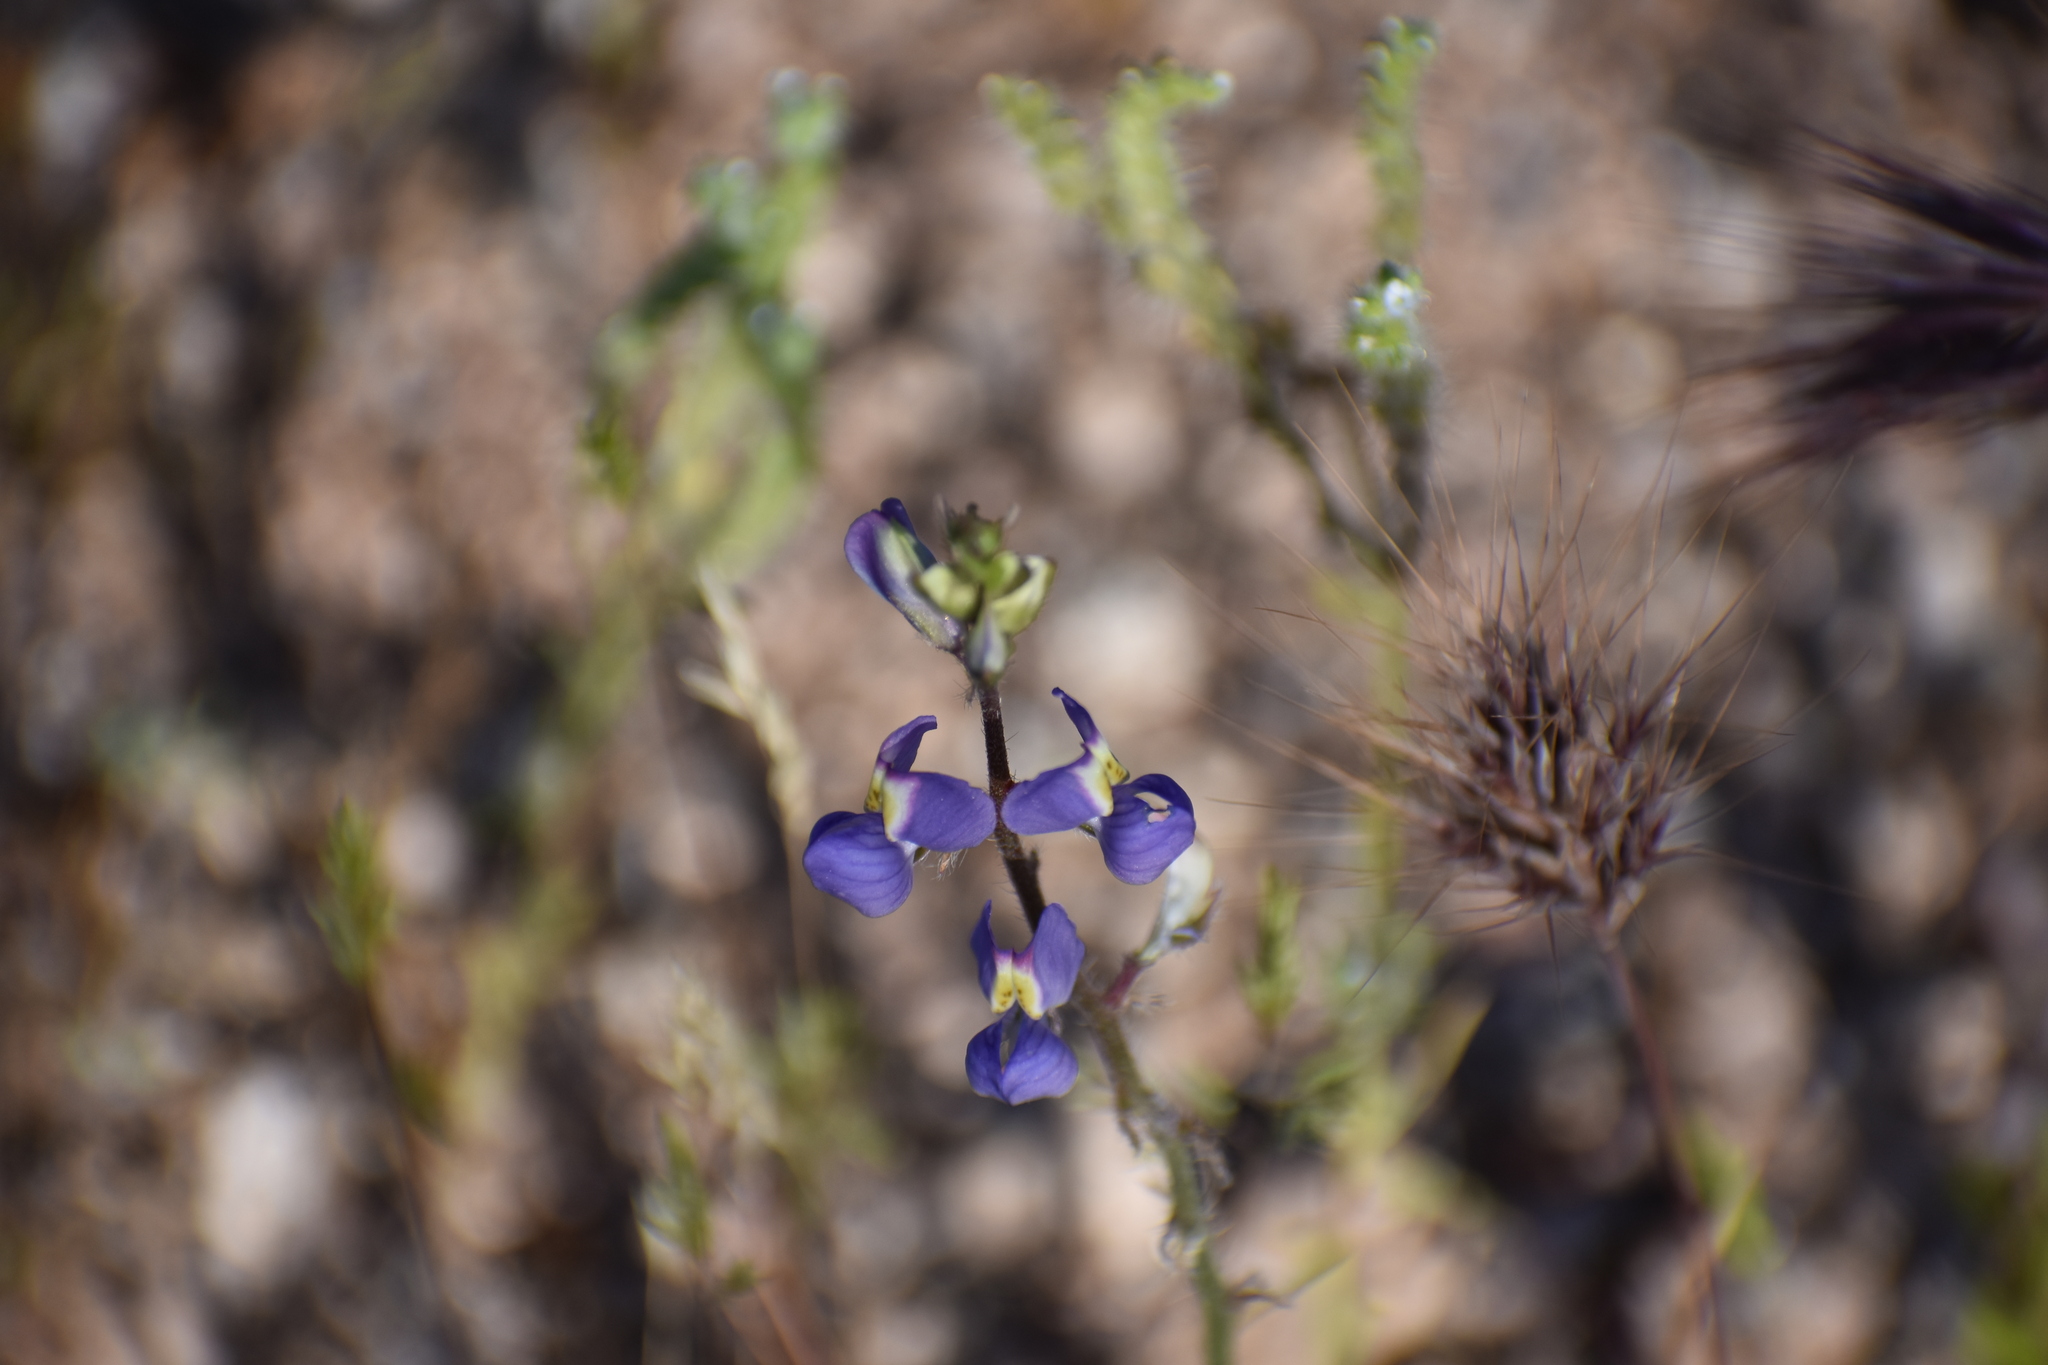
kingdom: Plantae
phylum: Tracheophyta
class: Magnoliopsida
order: Fabales
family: Fabaceae
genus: Lupinus
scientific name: Lupinus sparsiflorus
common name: Coulter's lupine
